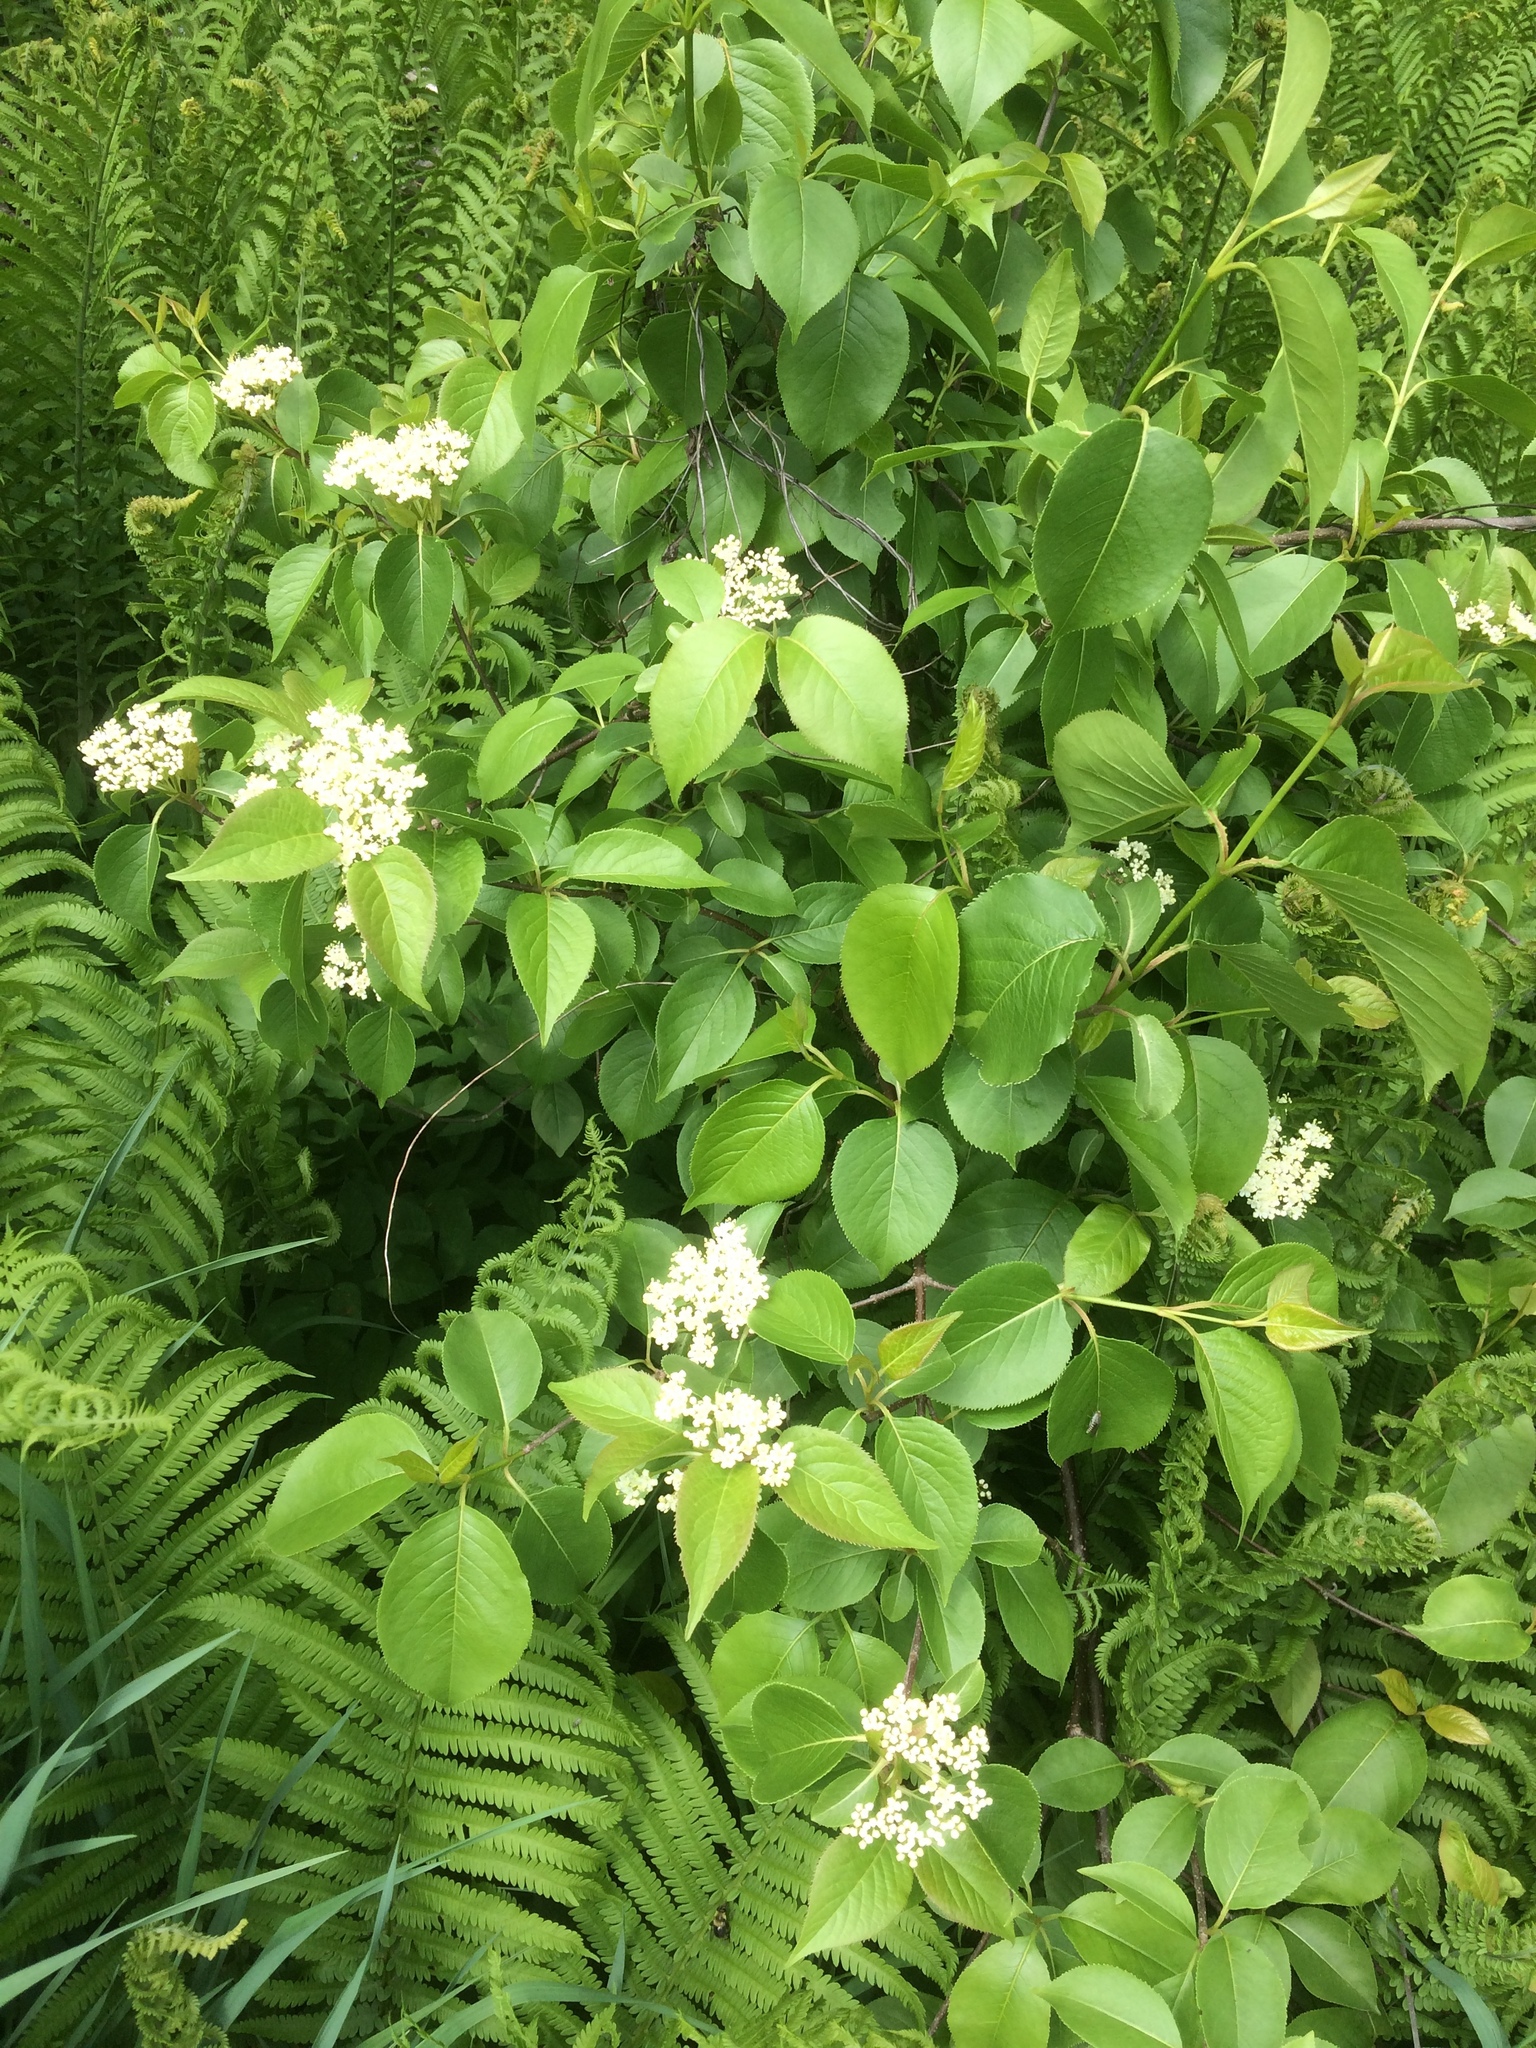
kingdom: Plantae
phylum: Tracheophyta
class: Magnoliopsida
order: Dipsacales
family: Viburnaceae
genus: Viburnum
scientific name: Viburnum lentago
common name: Black haw
